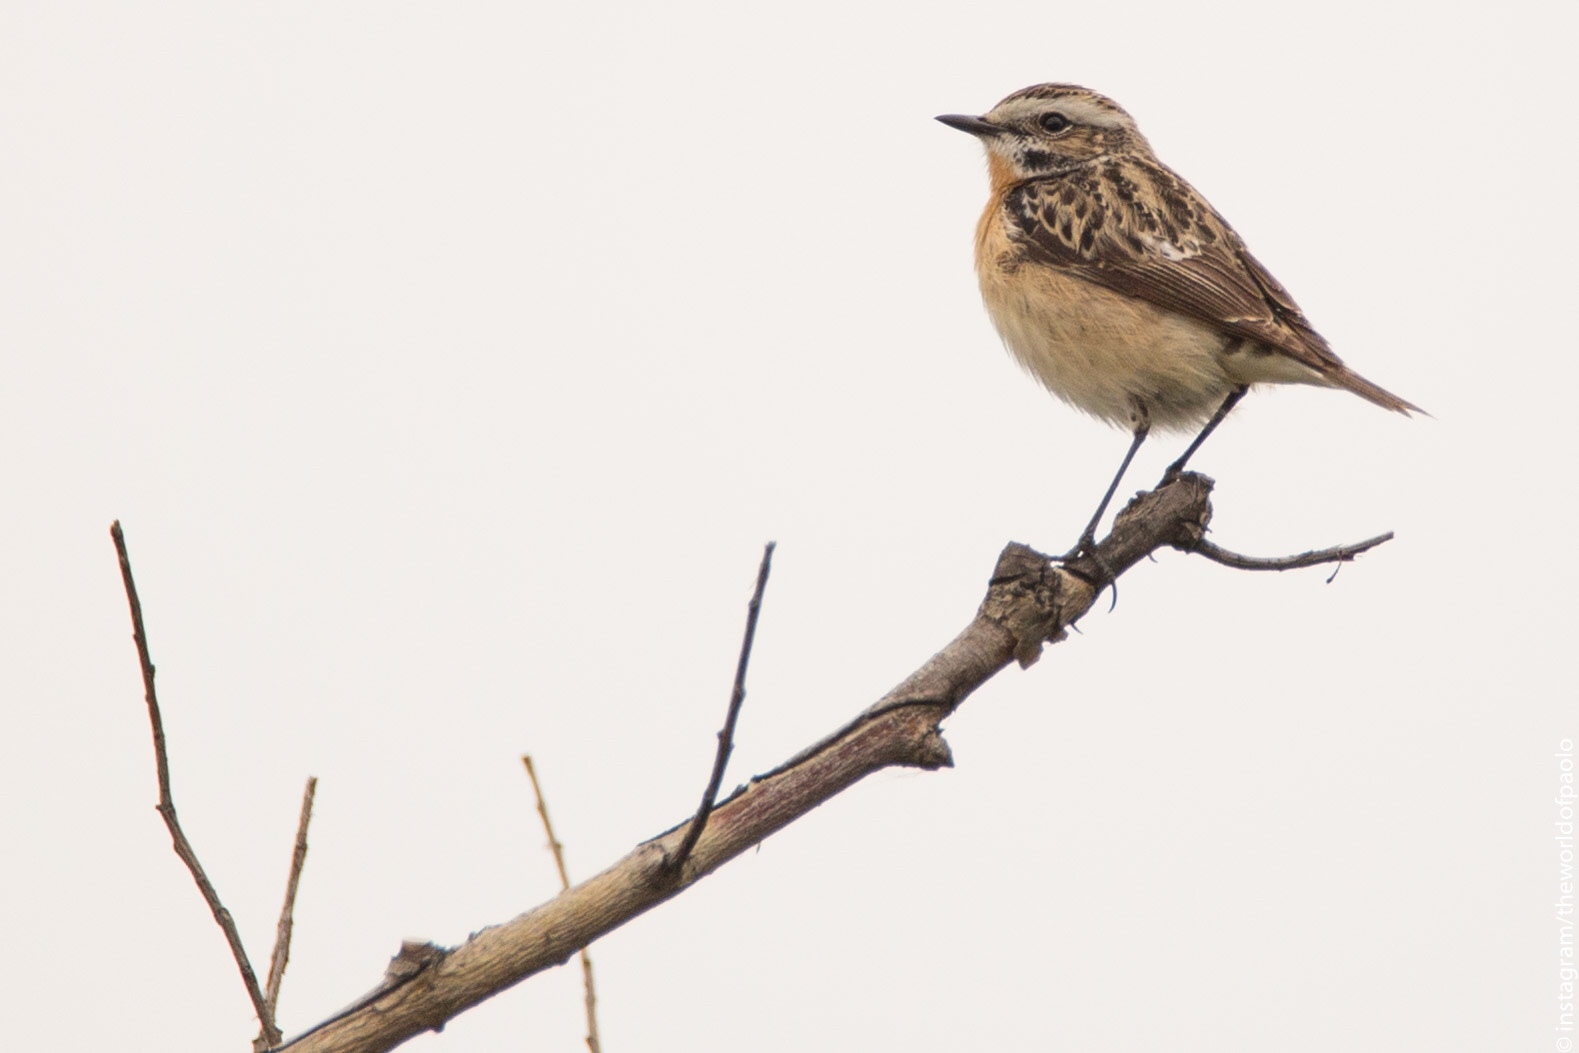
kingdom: Animalia
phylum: Chordata
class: Aves
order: Passeriformes
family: Muscicapidae
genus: Saxicola
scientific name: Saxicola rubetra
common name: Whinchat
